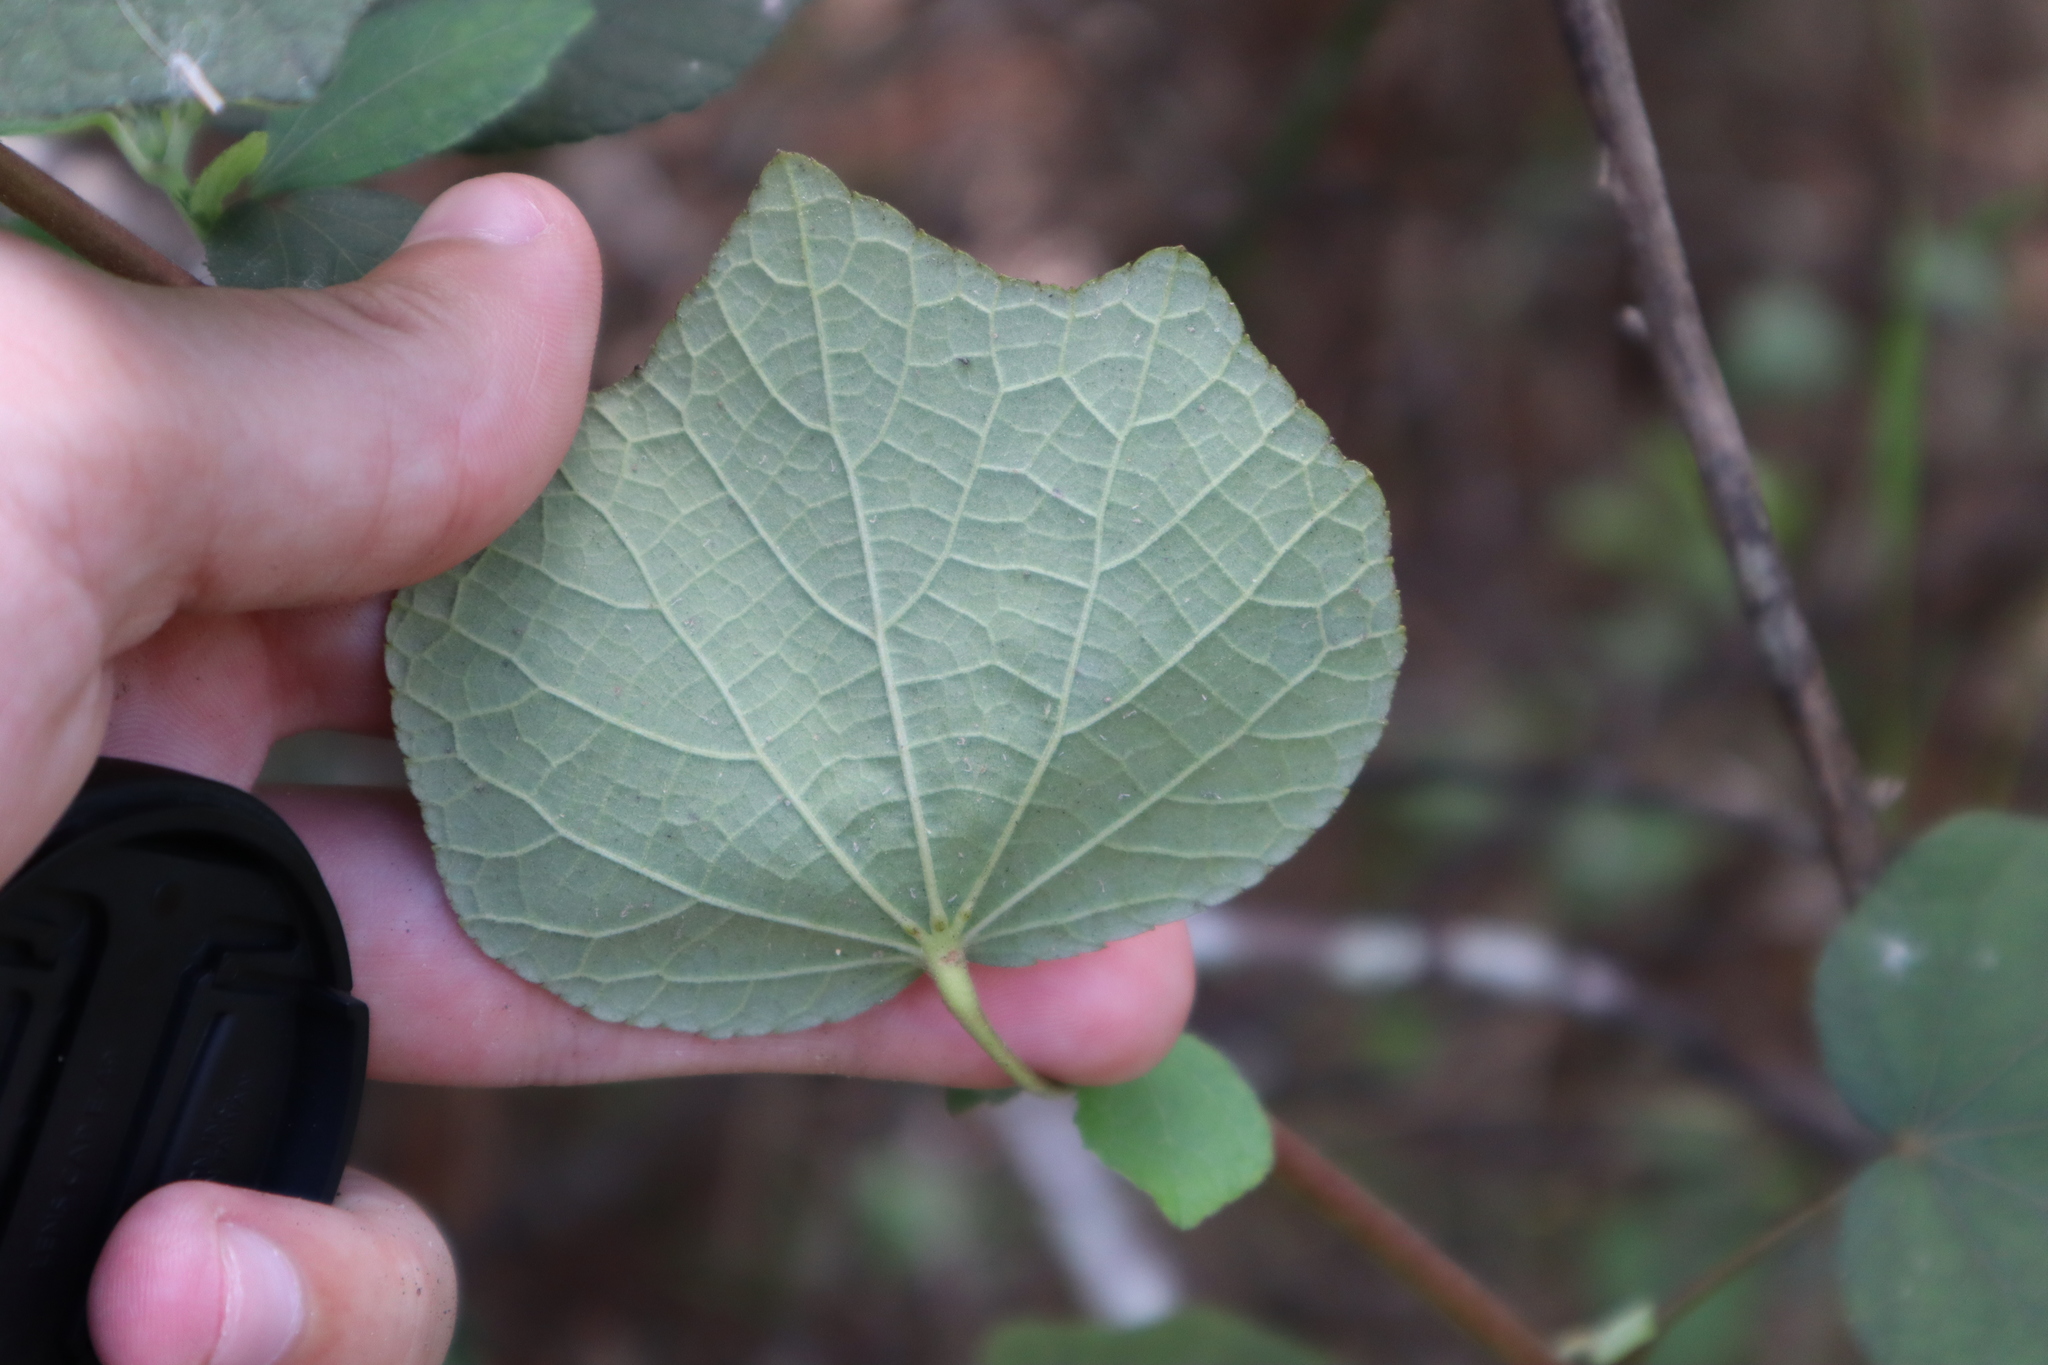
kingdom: Plantae
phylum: Tracheophyta
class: Magnoliopsida
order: Malvales
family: Malvaceae
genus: Urena
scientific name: Urena lobata
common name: Caesarweed
